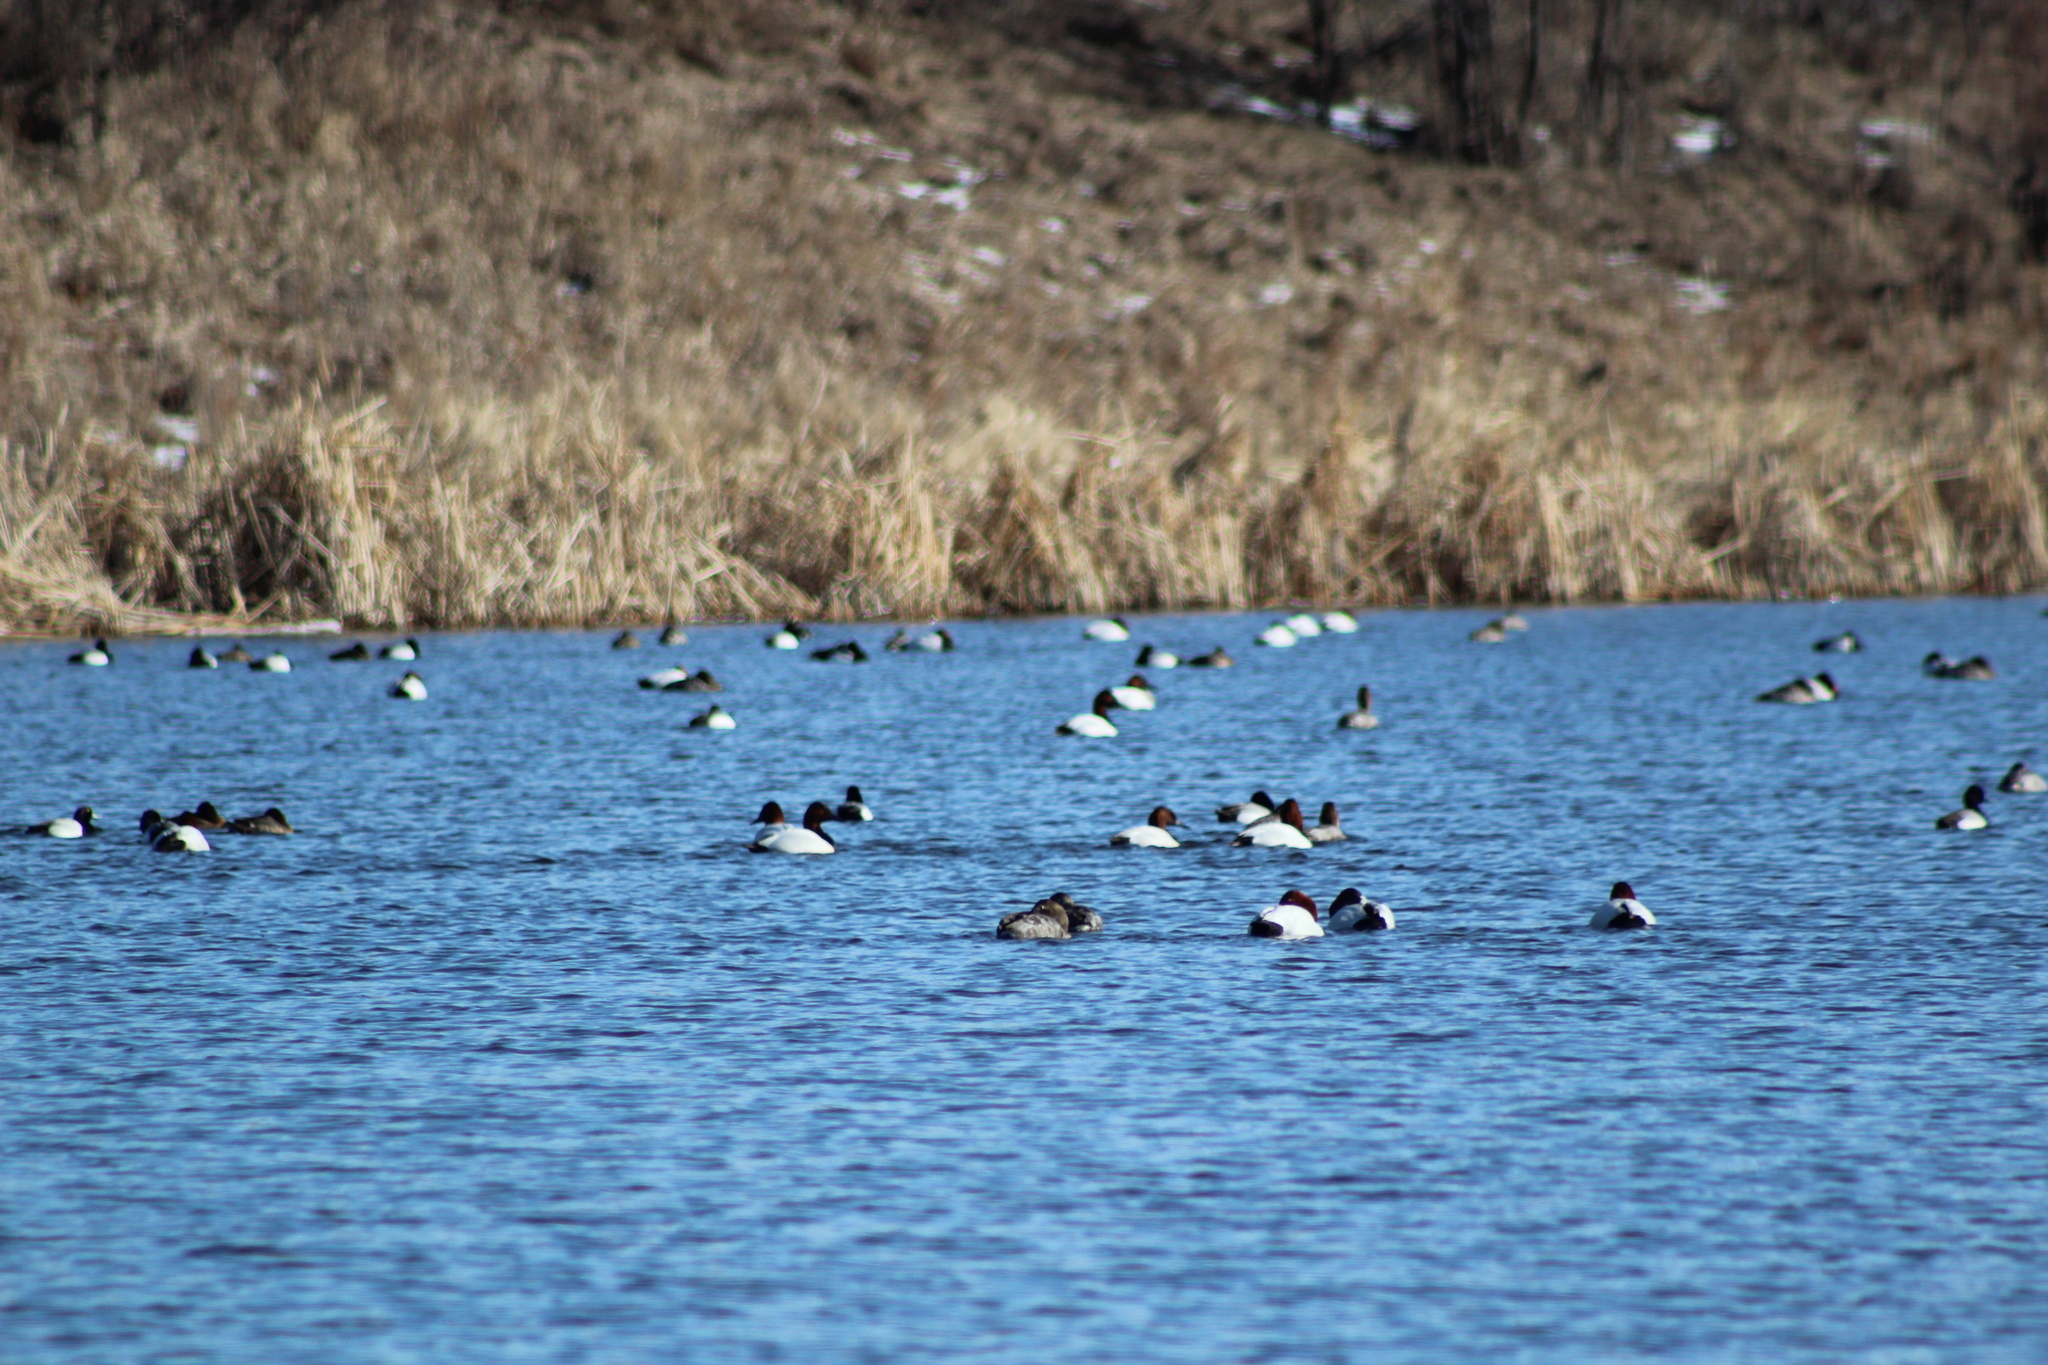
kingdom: Animalia
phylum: Chordata
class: Aves
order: Anseriformes
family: Anatidae
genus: Aythya
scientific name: Aythya valisineria
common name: Canvasback
